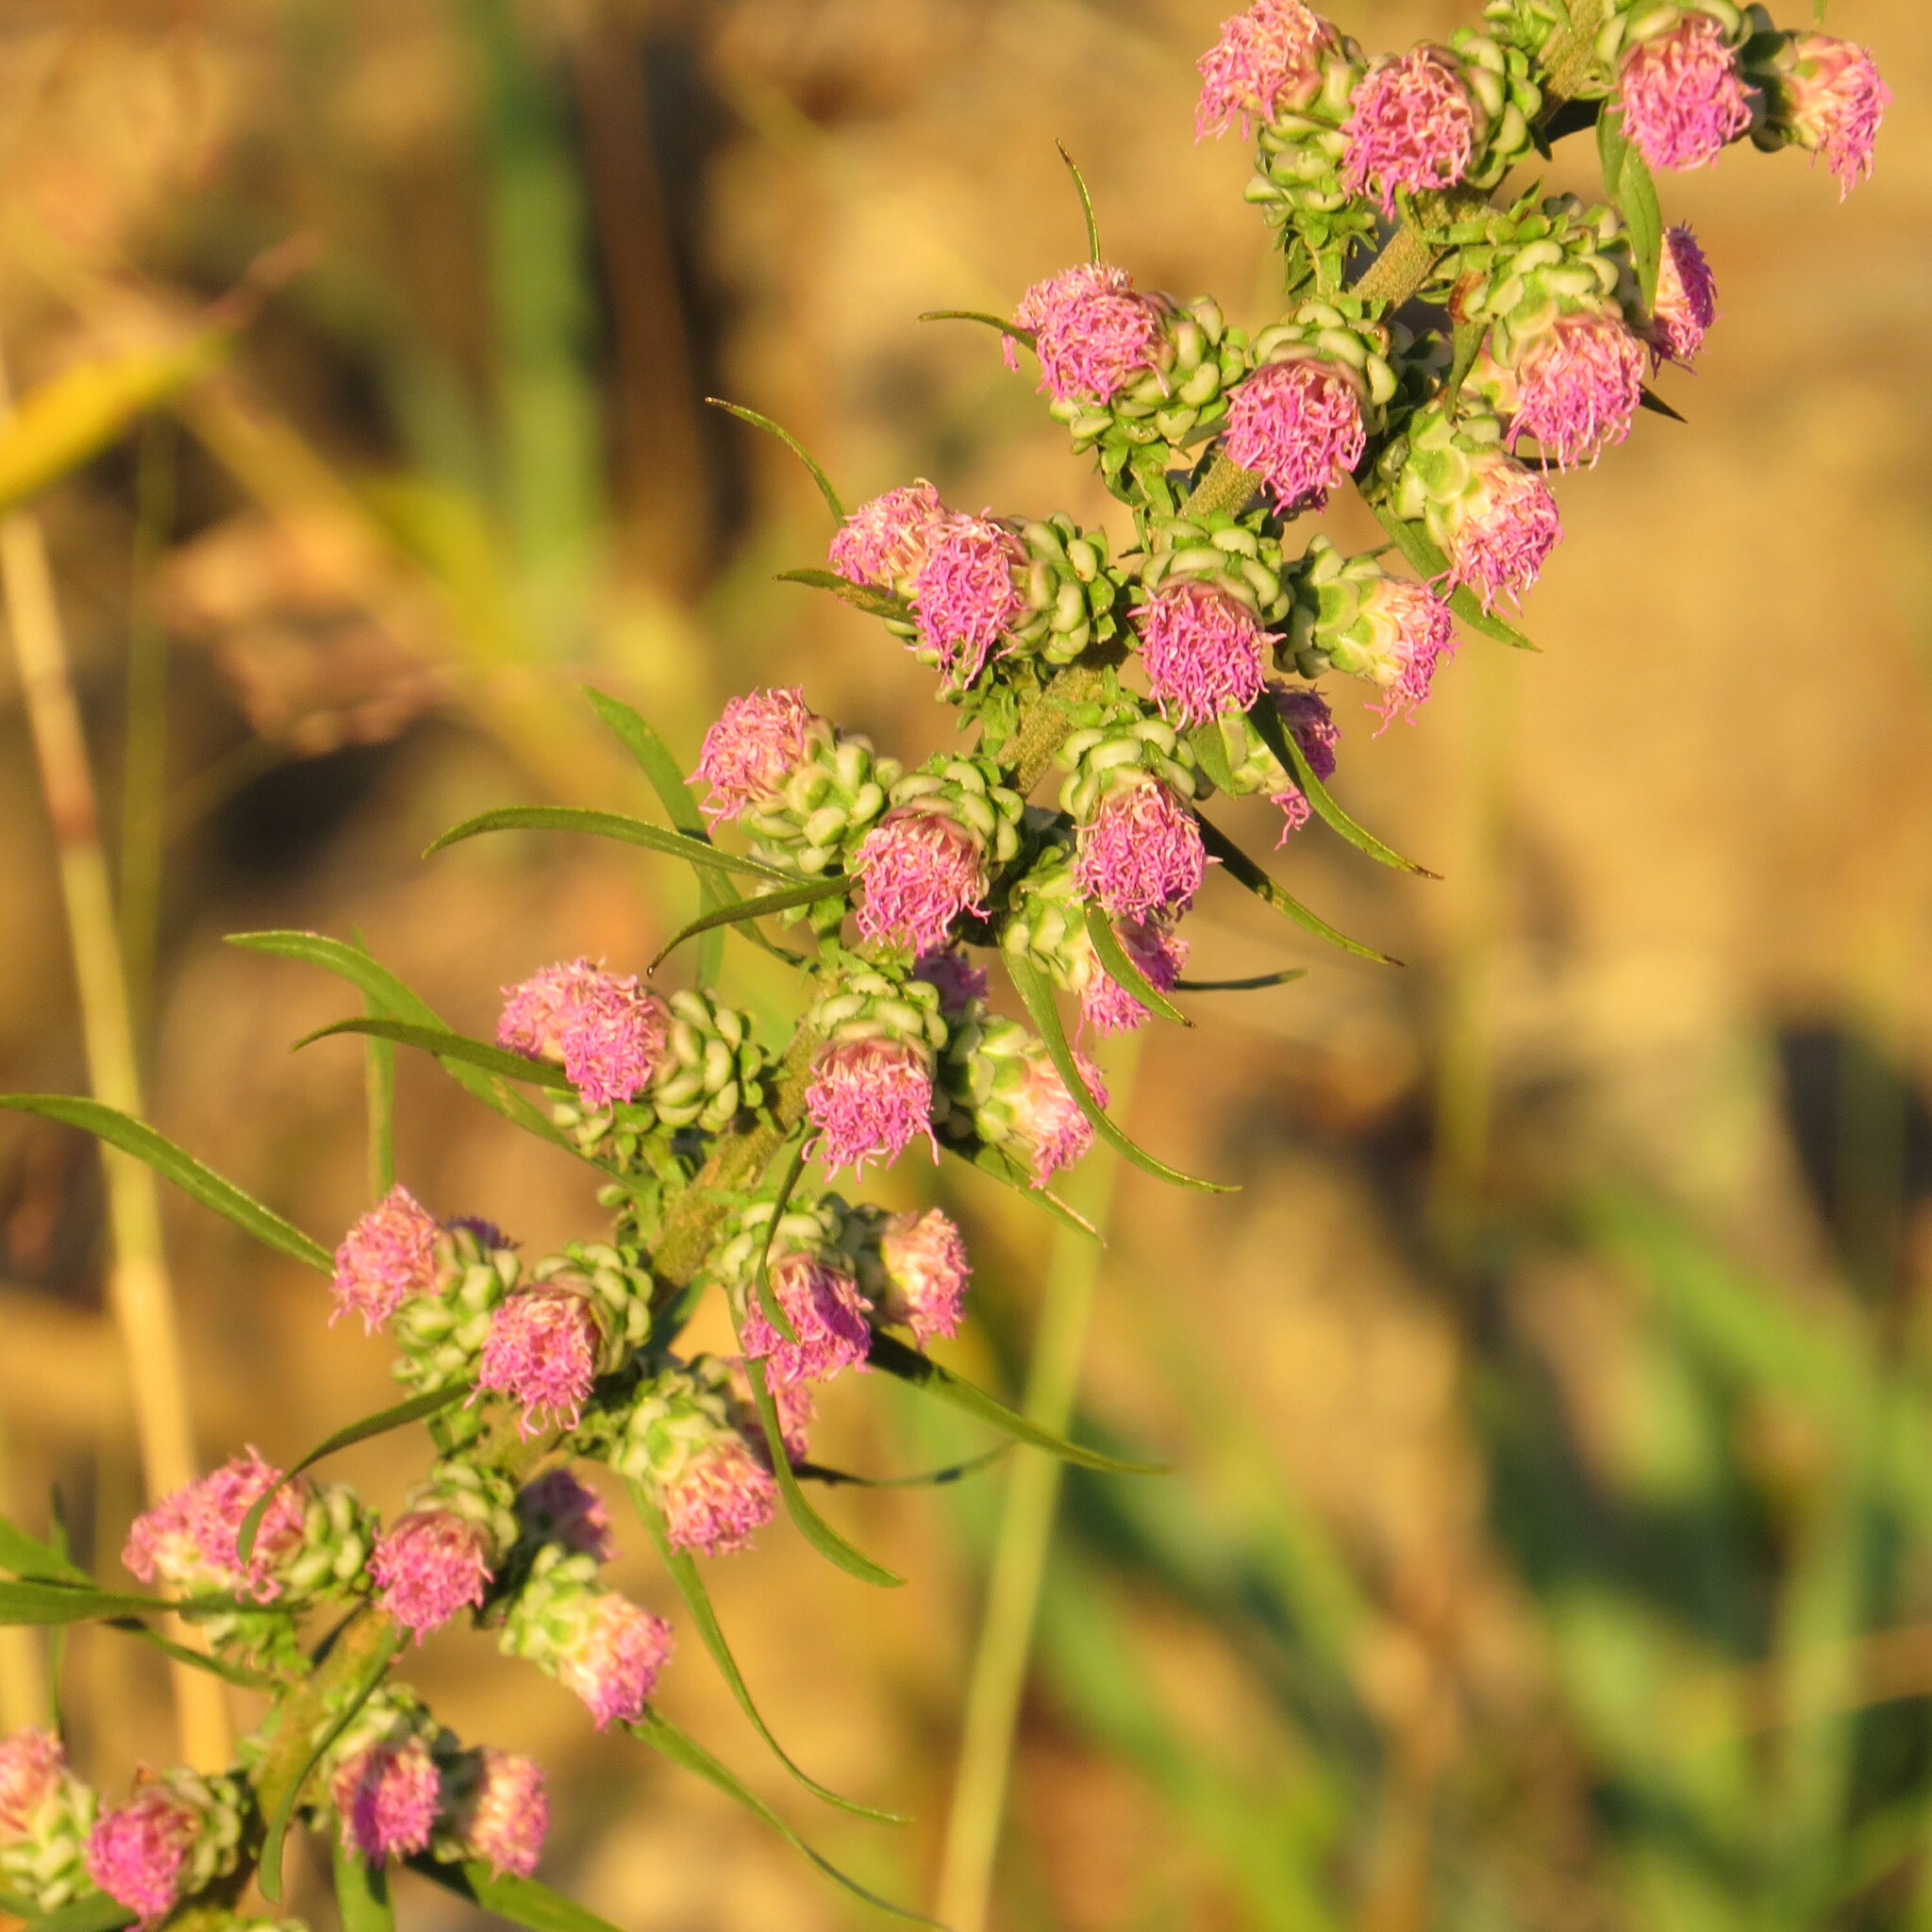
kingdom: Plantae
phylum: Tracheophyta
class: Magnoliopsida
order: Asterales
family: Asteraceae
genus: Liatris
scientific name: Liatris aspera
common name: Lacerate blazing-star
